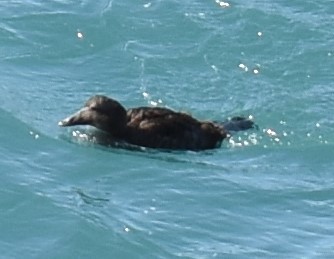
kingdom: Animalia
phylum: Chordata
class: Aves
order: Anseriformes
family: Anatidae
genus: Somateria
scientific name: Somateria mollissima
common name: Common eider
